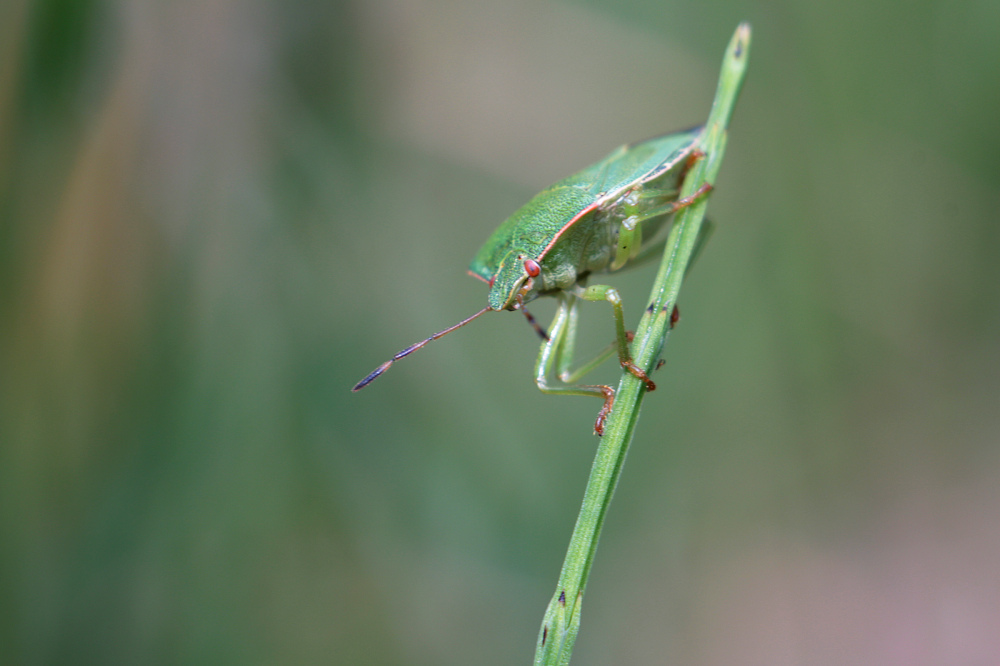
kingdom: Animalia
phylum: Arthropoda
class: Insecta
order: Hemiptera
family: Pentatomidae
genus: Palomena
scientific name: Palomena prasina
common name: Green shieldbug
